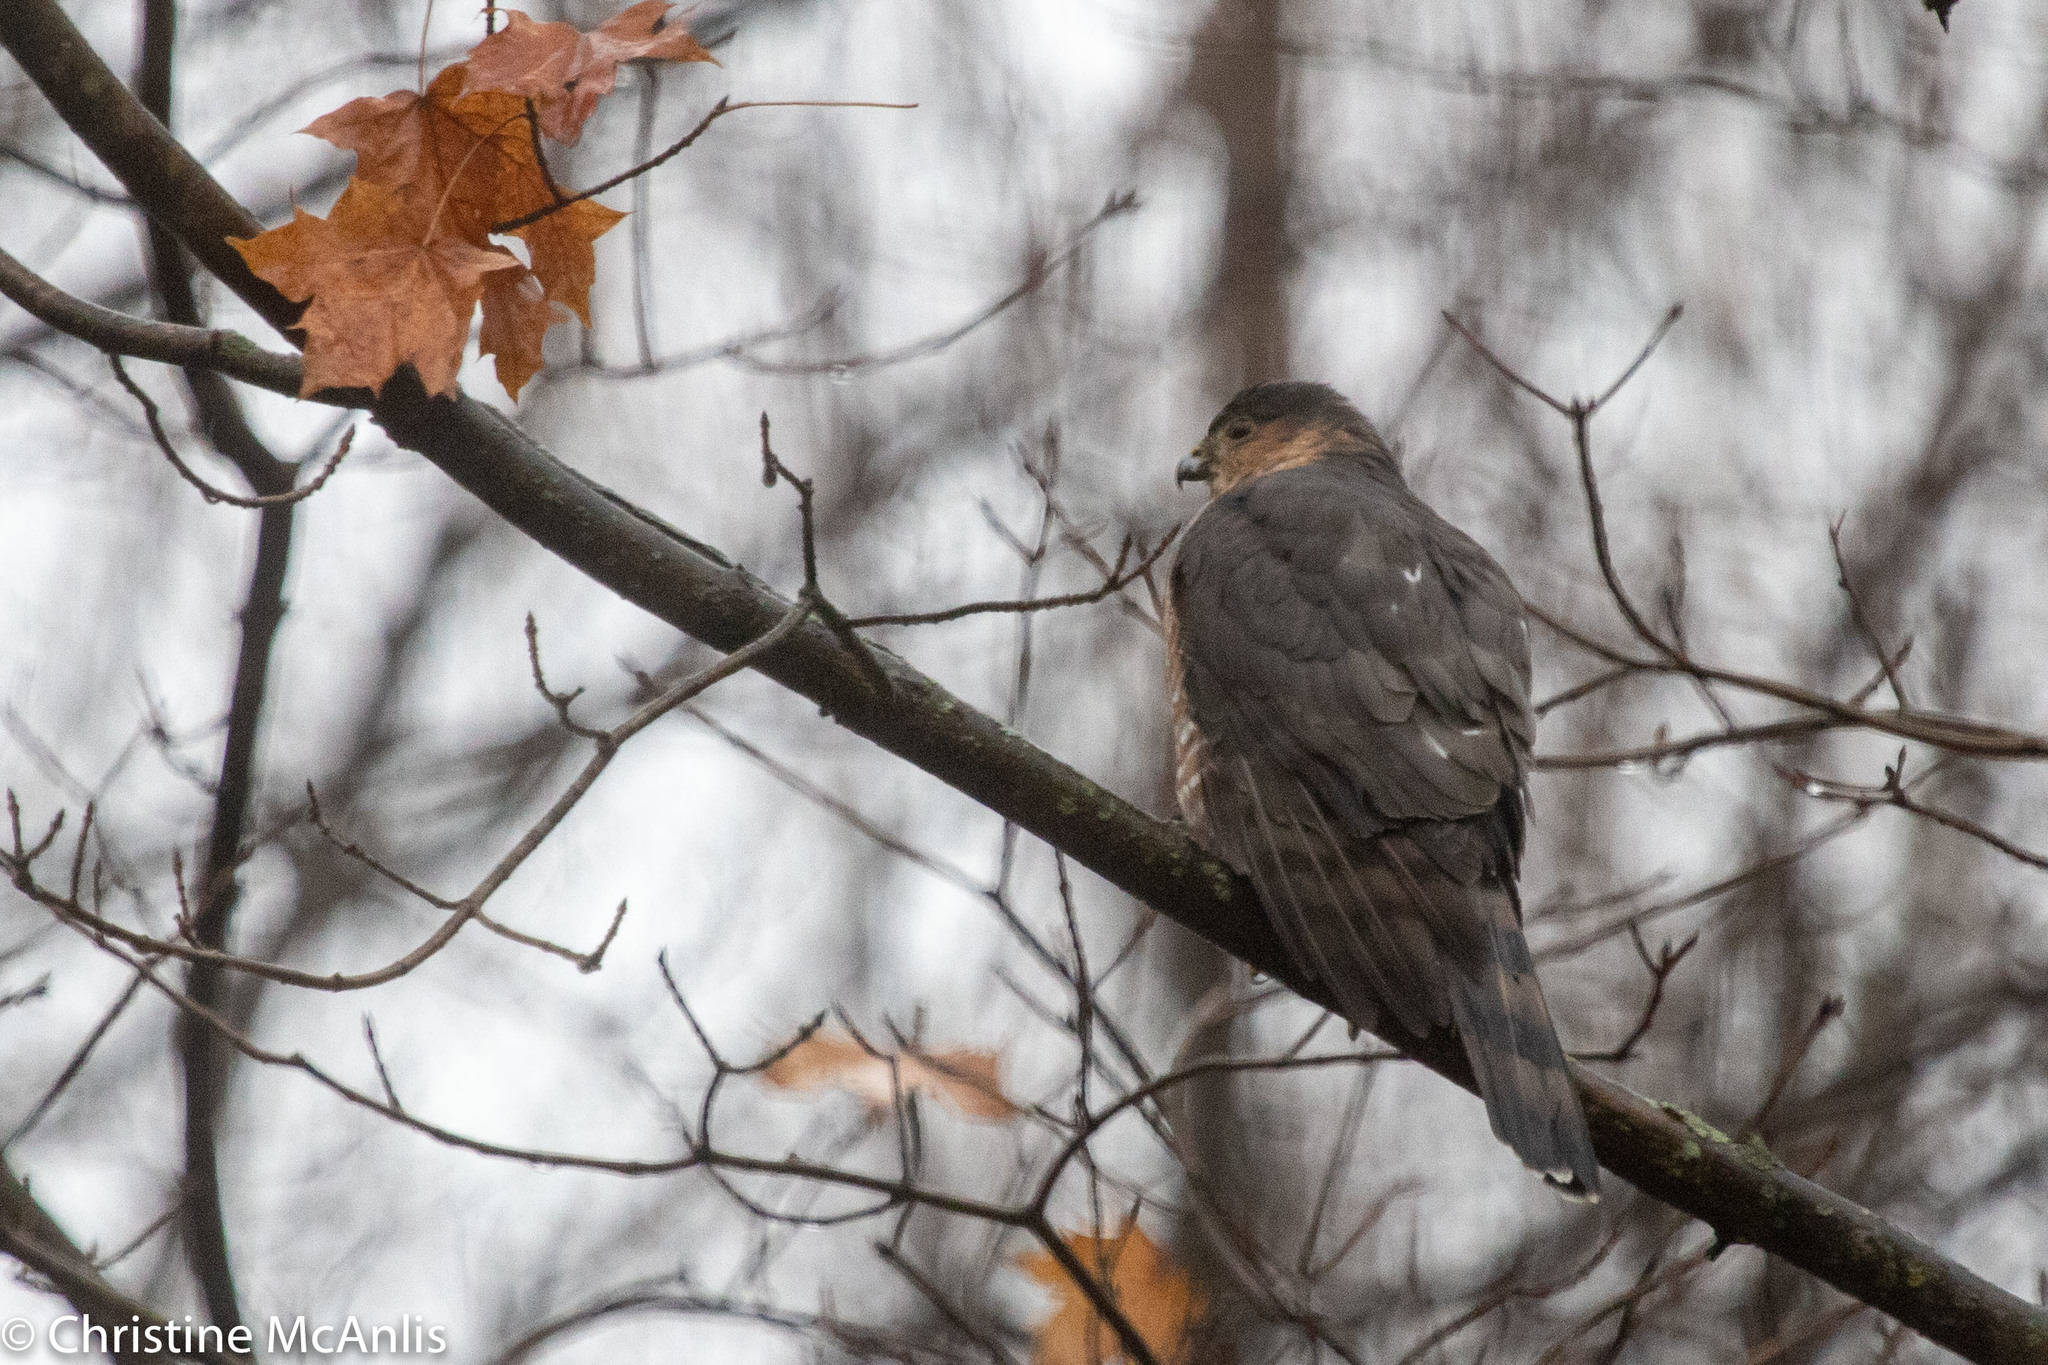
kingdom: Animalia
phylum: Chordata
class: Aves
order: Accipitriformes
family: Accipitridae
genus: Accipiter
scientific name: Accipiter striatus
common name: Sharp-shinned hawk
